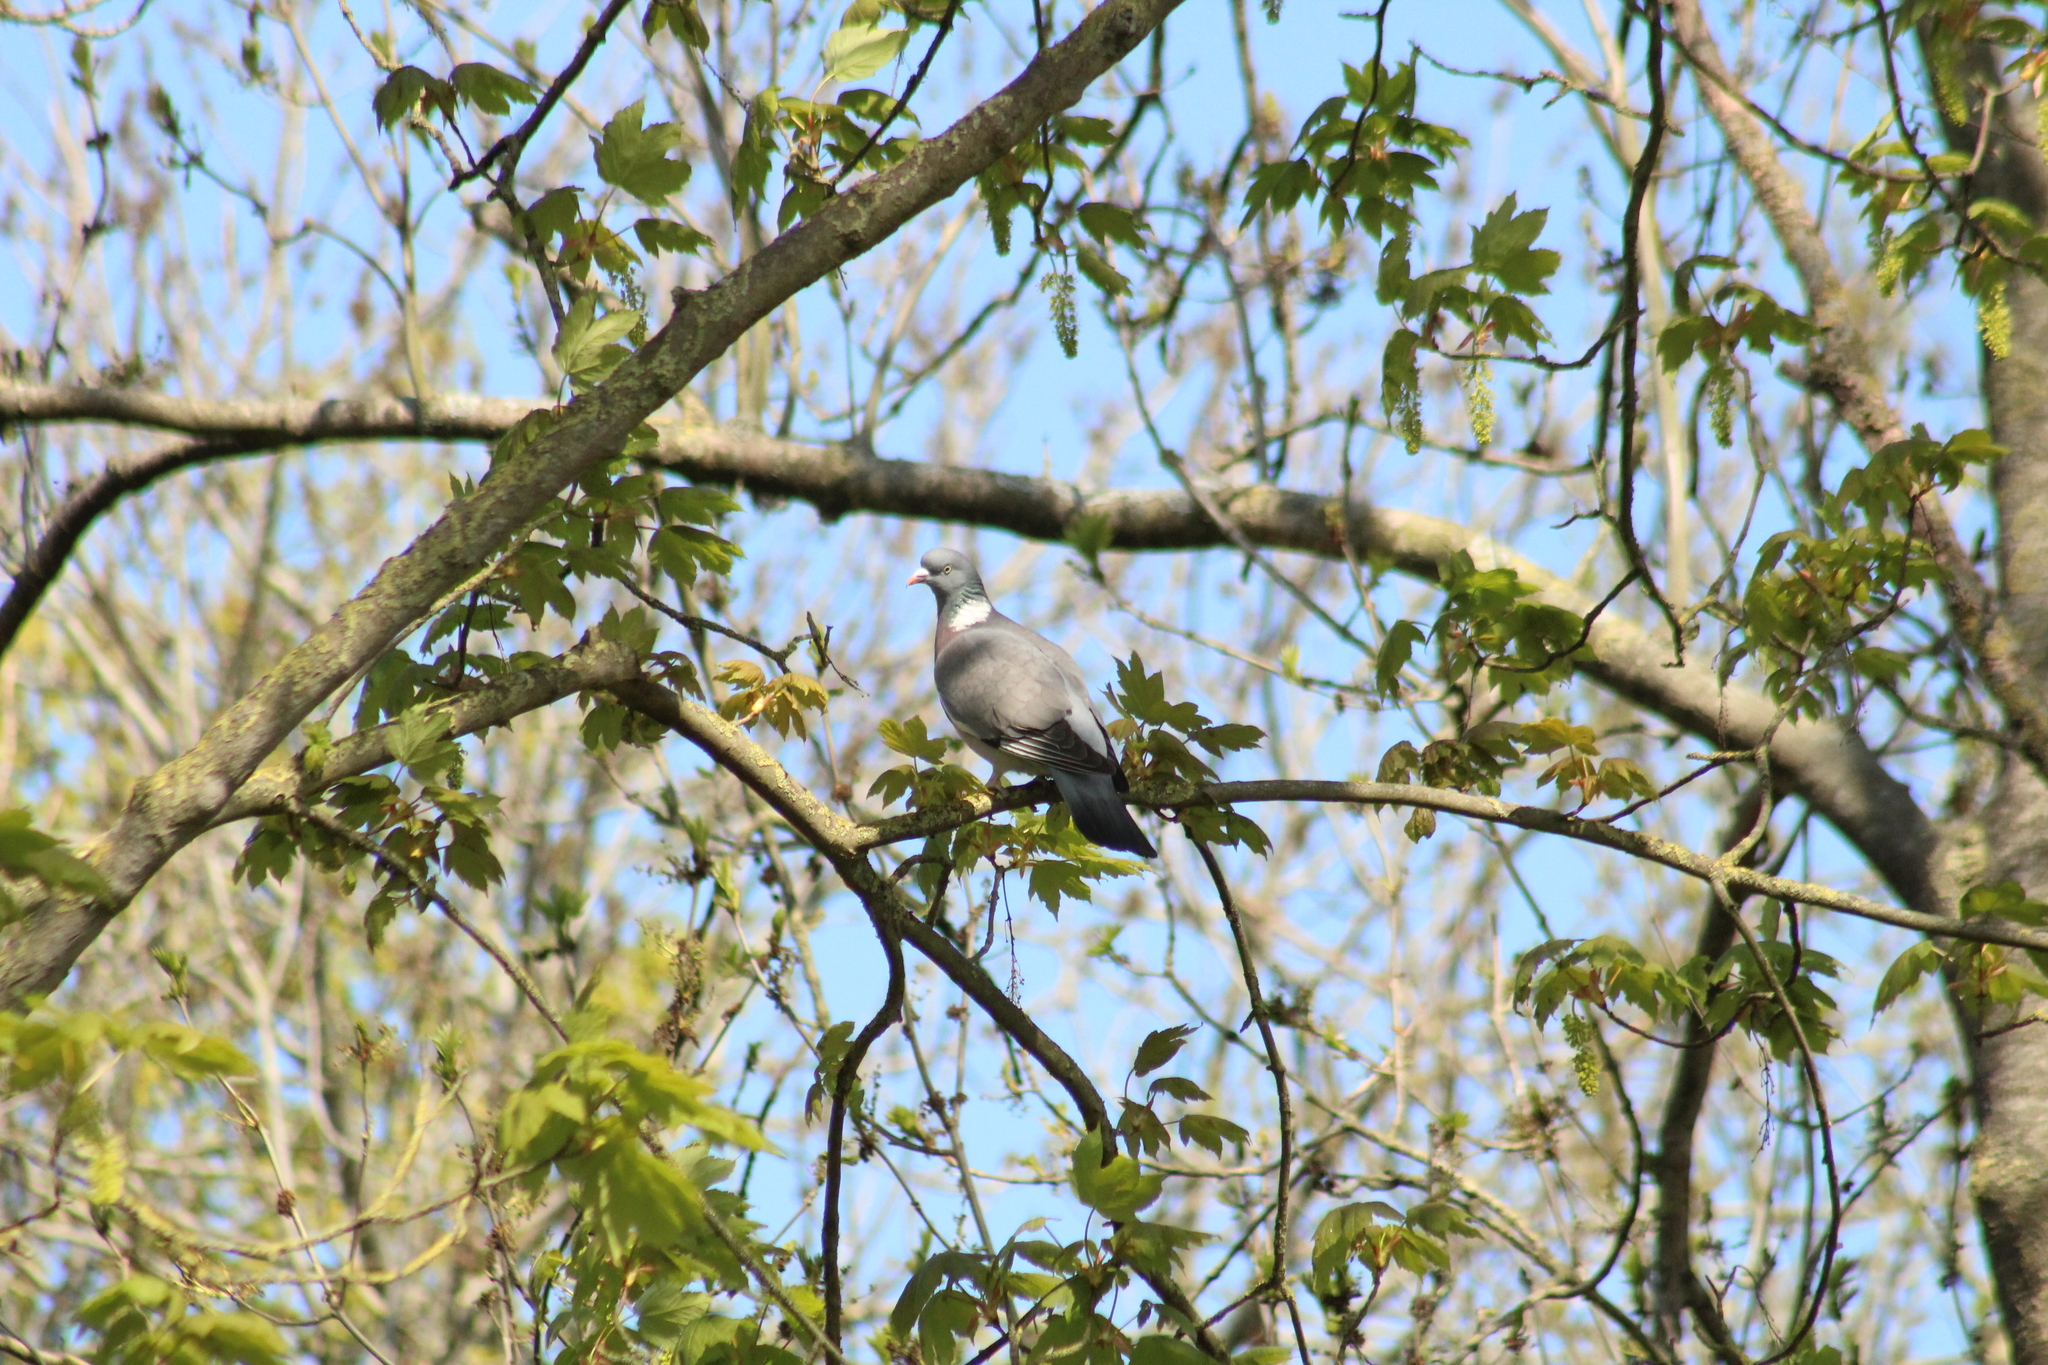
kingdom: Animalia
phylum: Chordata
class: Aves
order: Columbiformes
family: Columbidae
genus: Columba
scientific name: Columba palumbus
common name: Common wood pigeon
